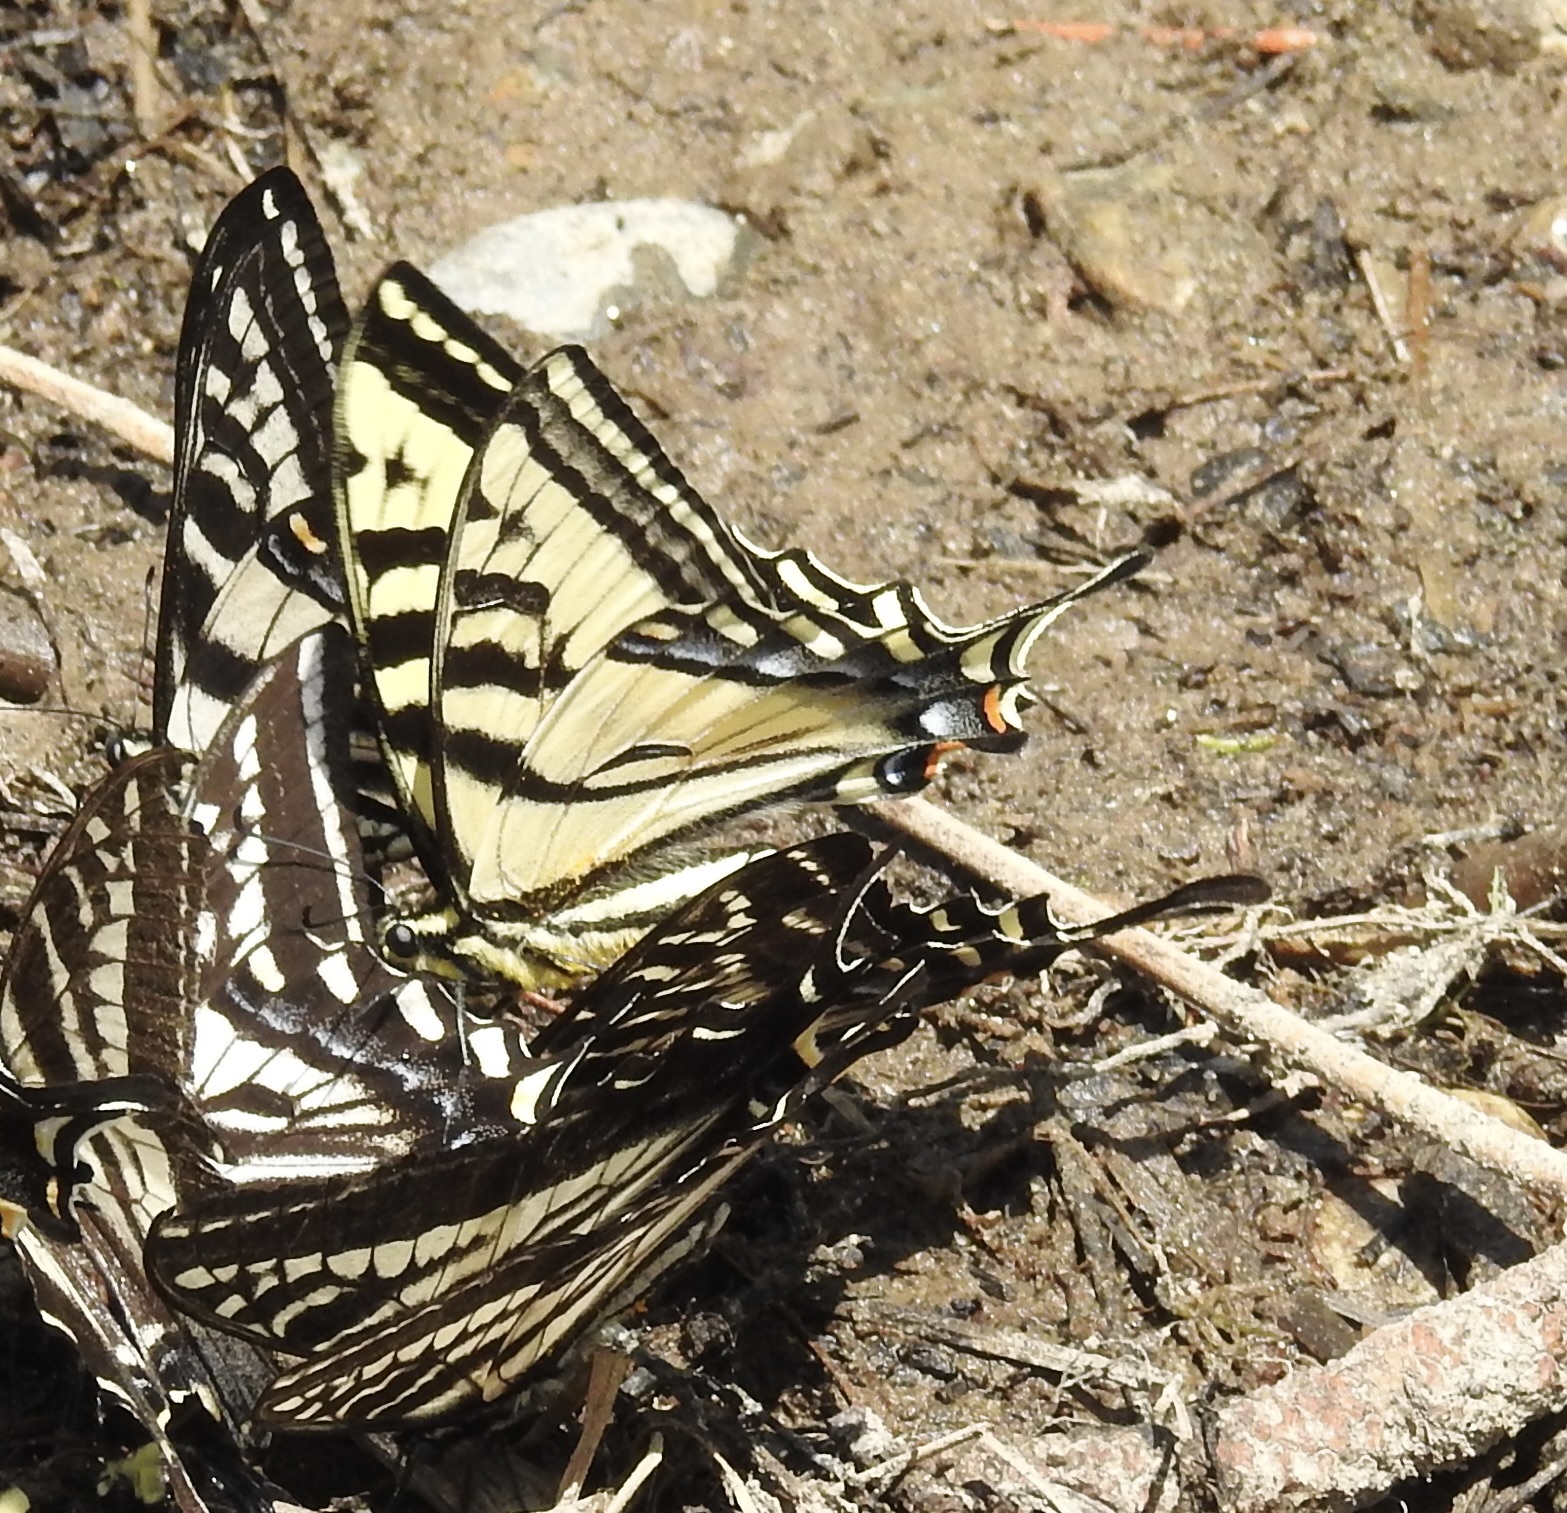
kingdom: Animalia
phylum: Arthropoda
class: Insecta
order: Lepidoptera
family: Papilionidae
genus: Papilio
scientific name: Papilio rutulus
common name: Western tiger swallowtail
